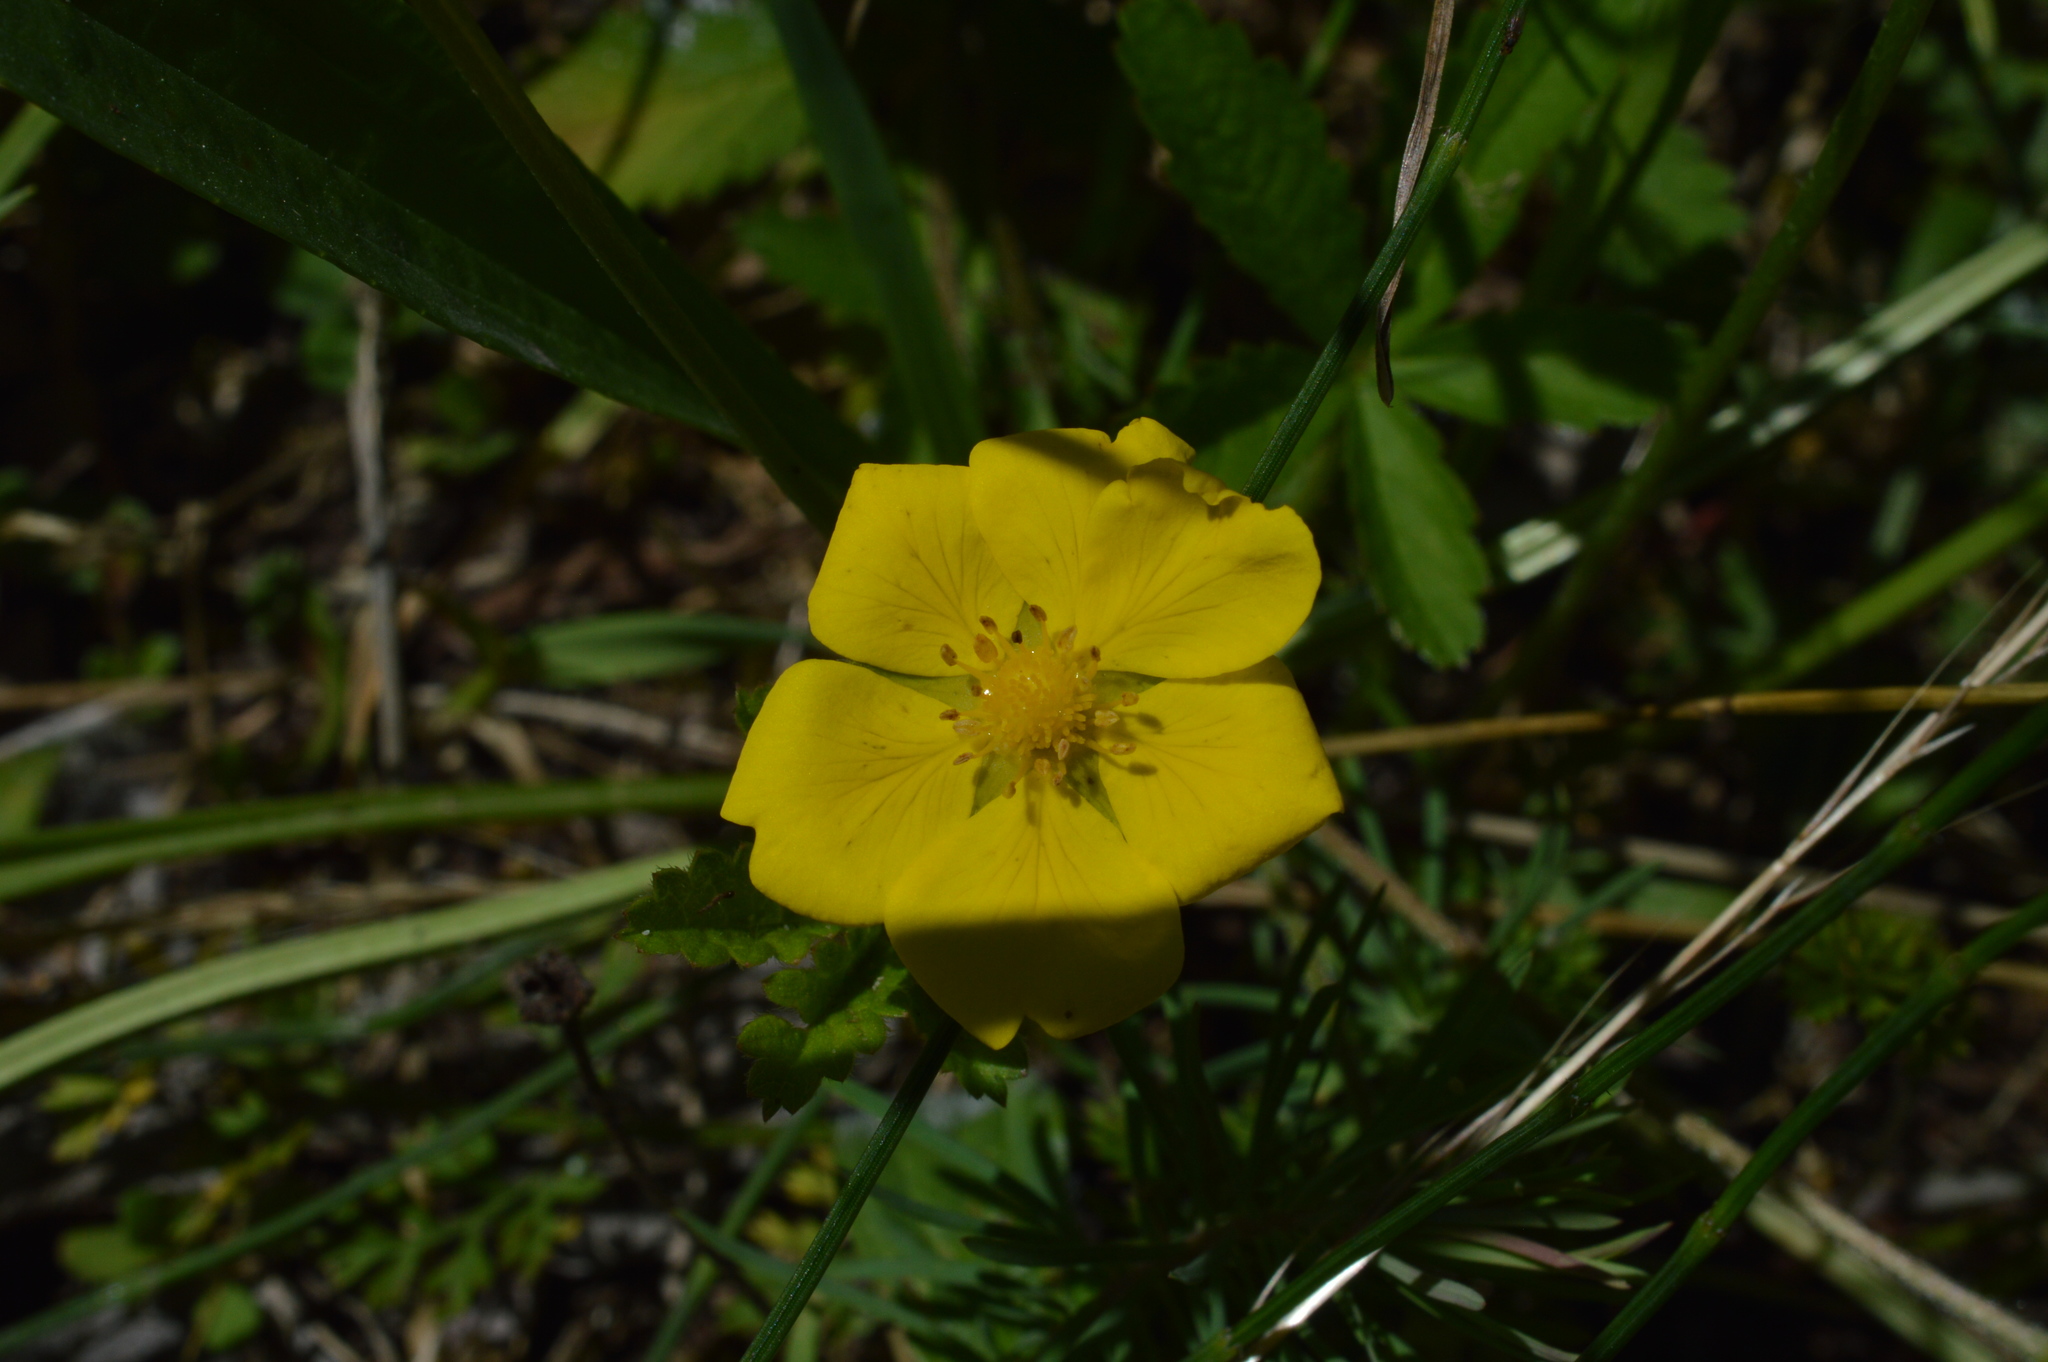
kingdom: Plantae
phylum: Tracheophyta
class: Magnoliopsida
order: Rosales
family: Rosaceae
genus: Potentilla
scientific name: Potentilla reptans
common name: Creeping cinquefoil
